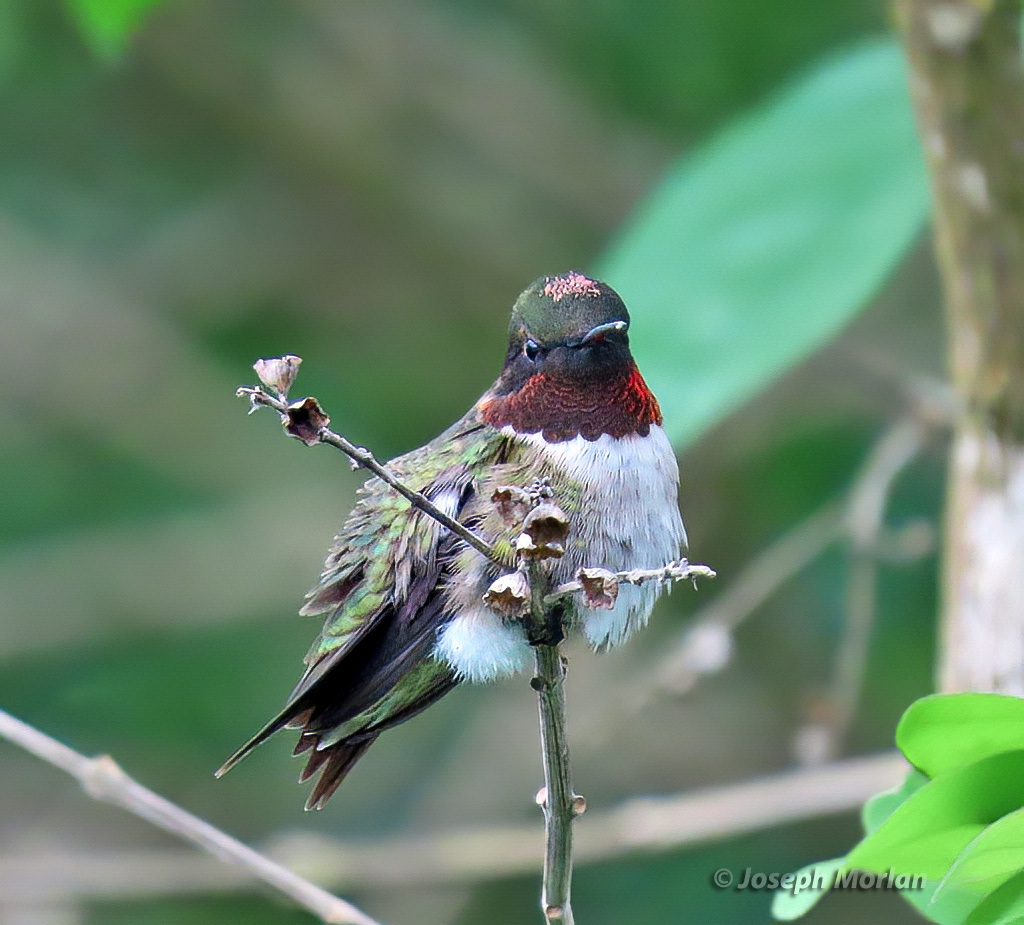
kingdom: Animalia
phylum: Chordata
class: Aves
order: Apodiformes
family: Trochilidae
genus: Archilochus
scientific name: Archilochus colubris
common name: Ruby-throated hummingbird
